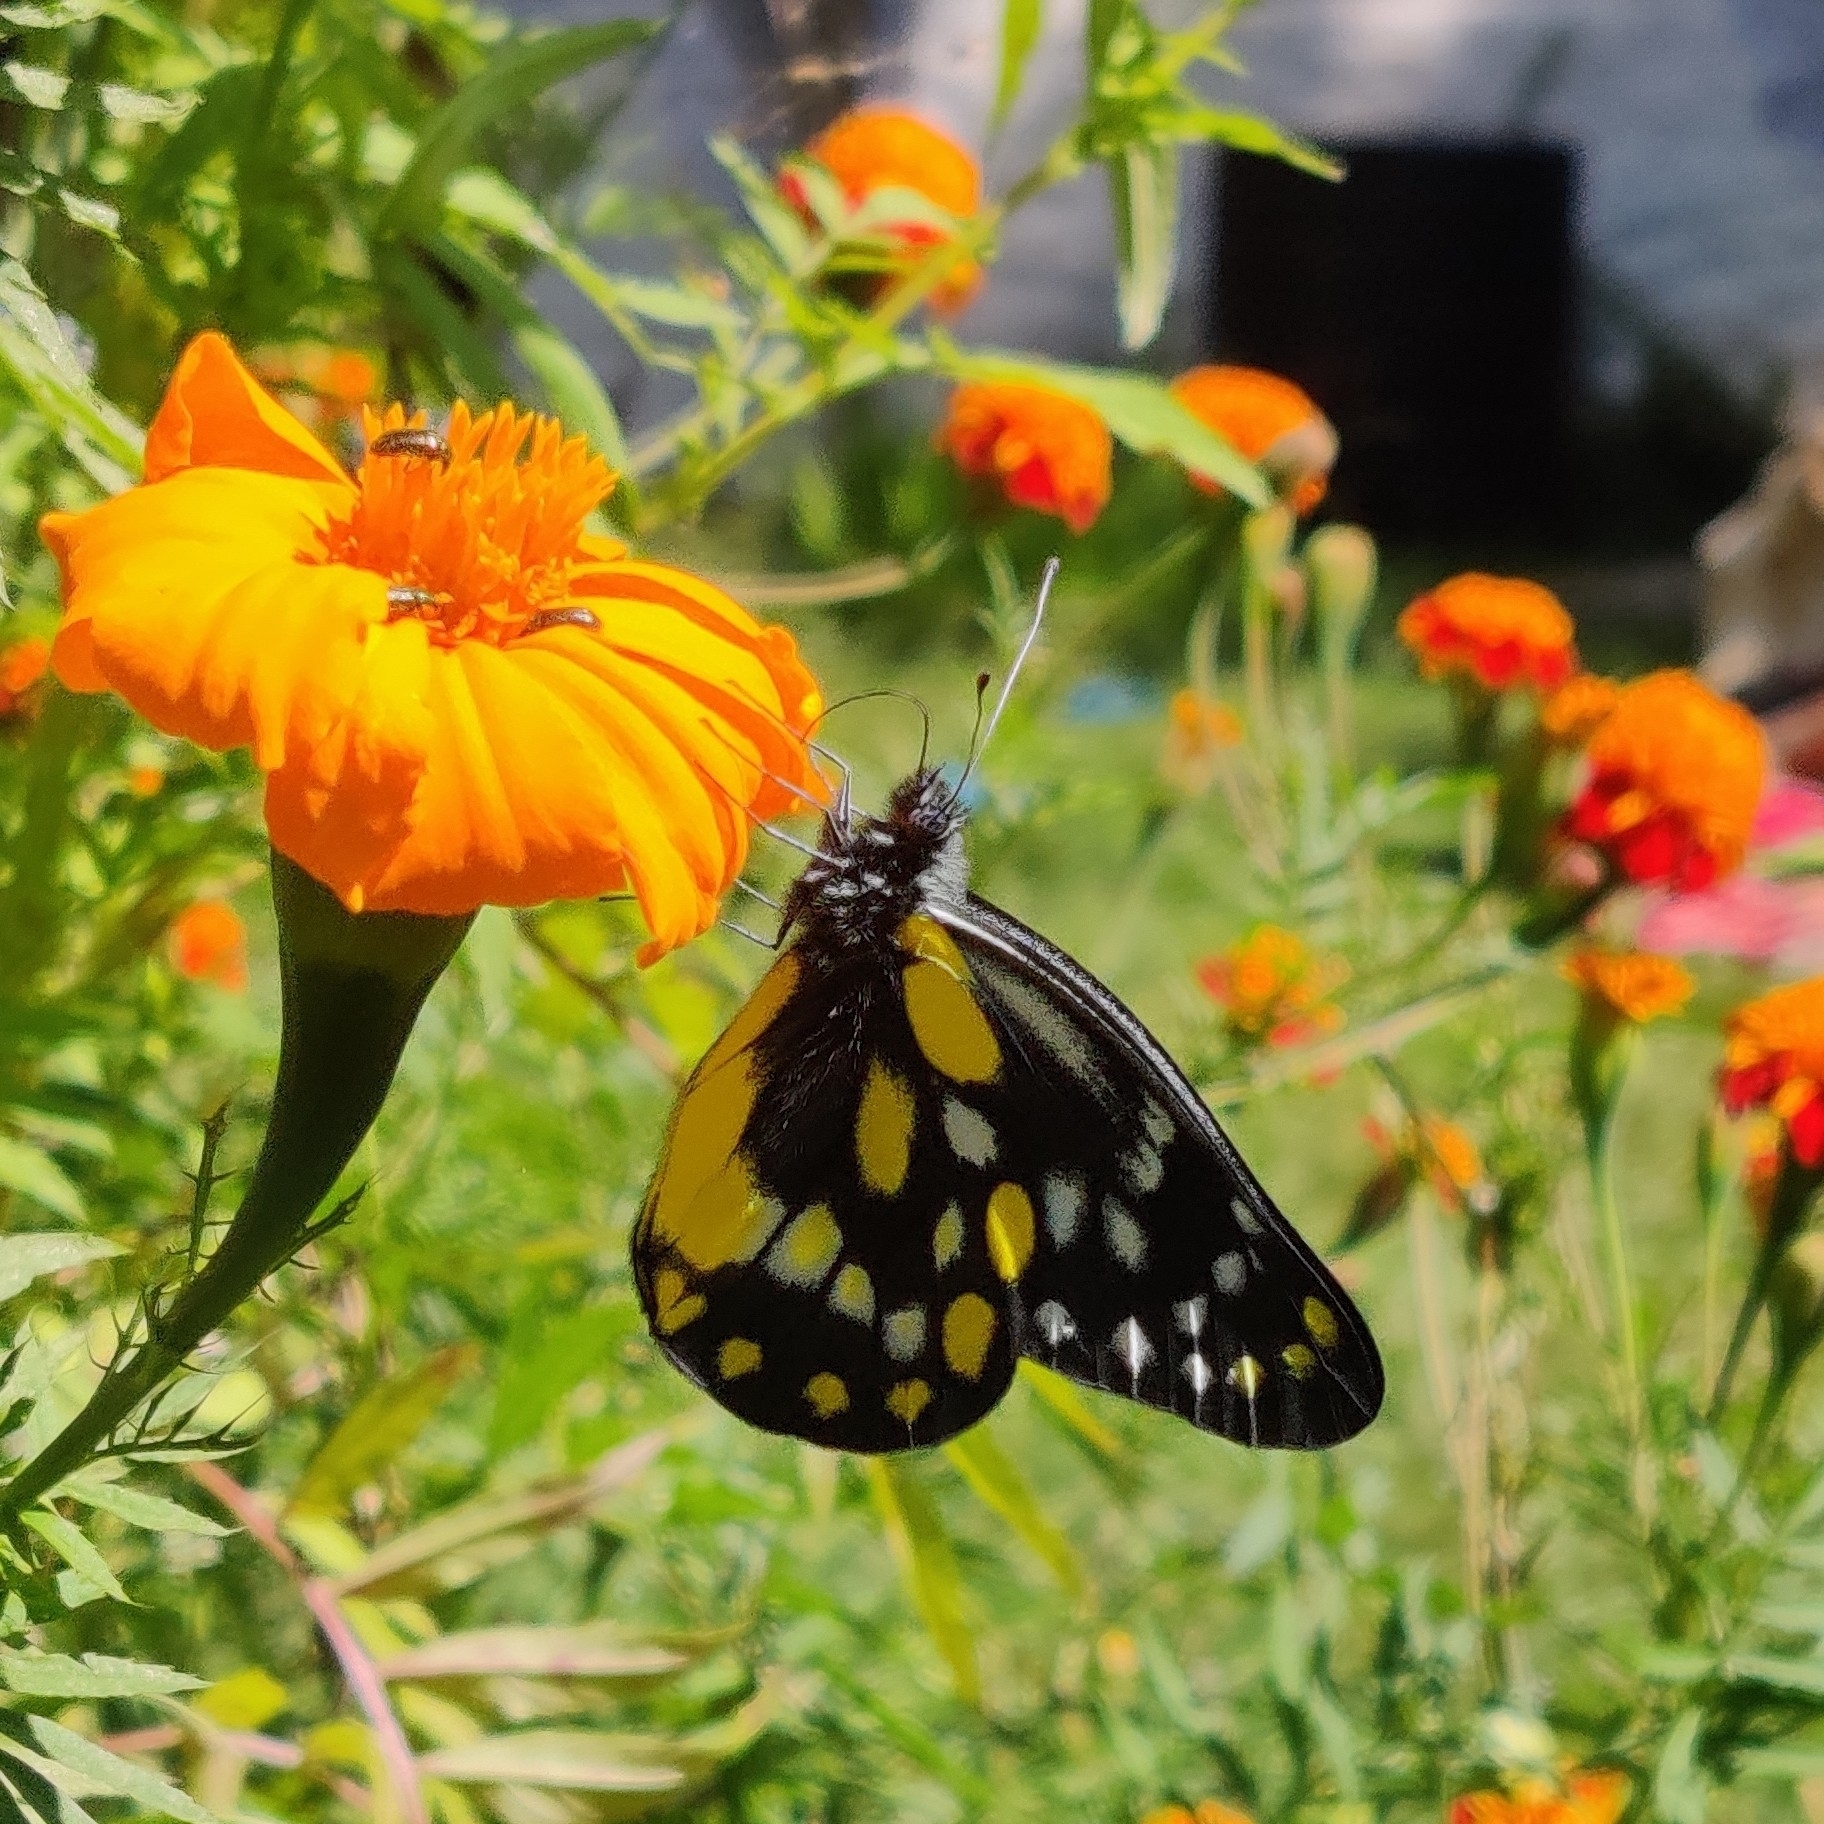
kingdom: Animalia
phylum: Arthropoda
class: Insecta
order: Lepidoptera
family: Pieridae
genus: Delias
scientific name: Delias belladonna
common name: Hill jezebel
